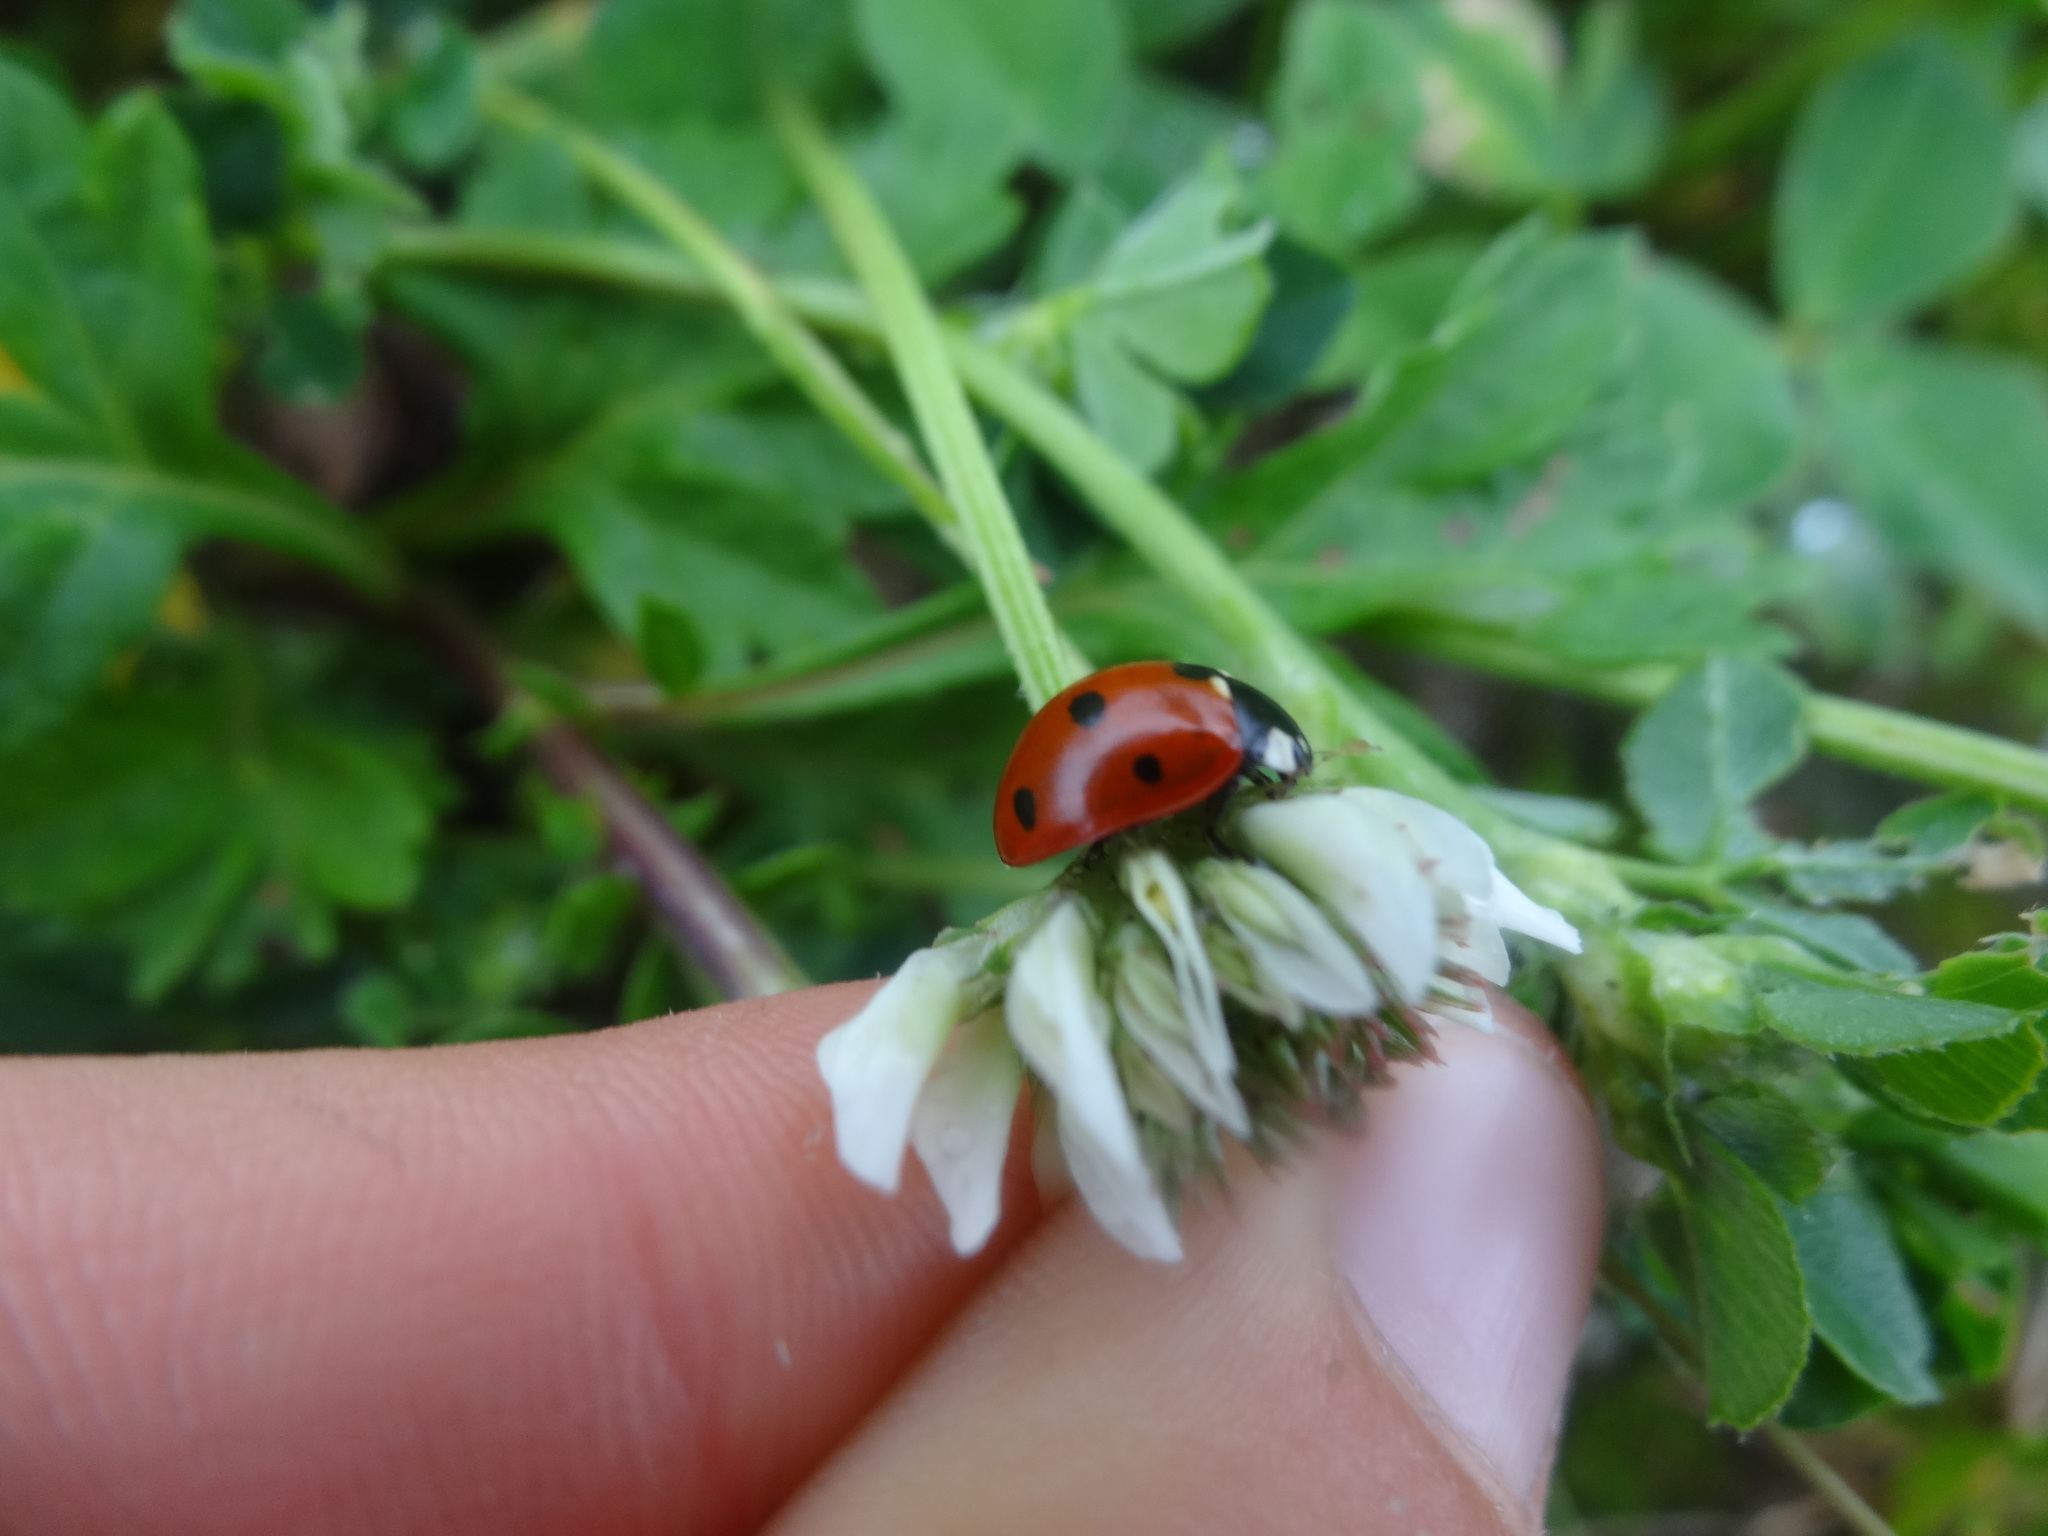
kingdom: Animalia
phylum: Arthropoda
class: Insecta
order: Coleoptera
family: Coccinellidae
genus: Coccinella
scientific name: Coccinella septempunctata
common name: Sevenspotted lady beetle
